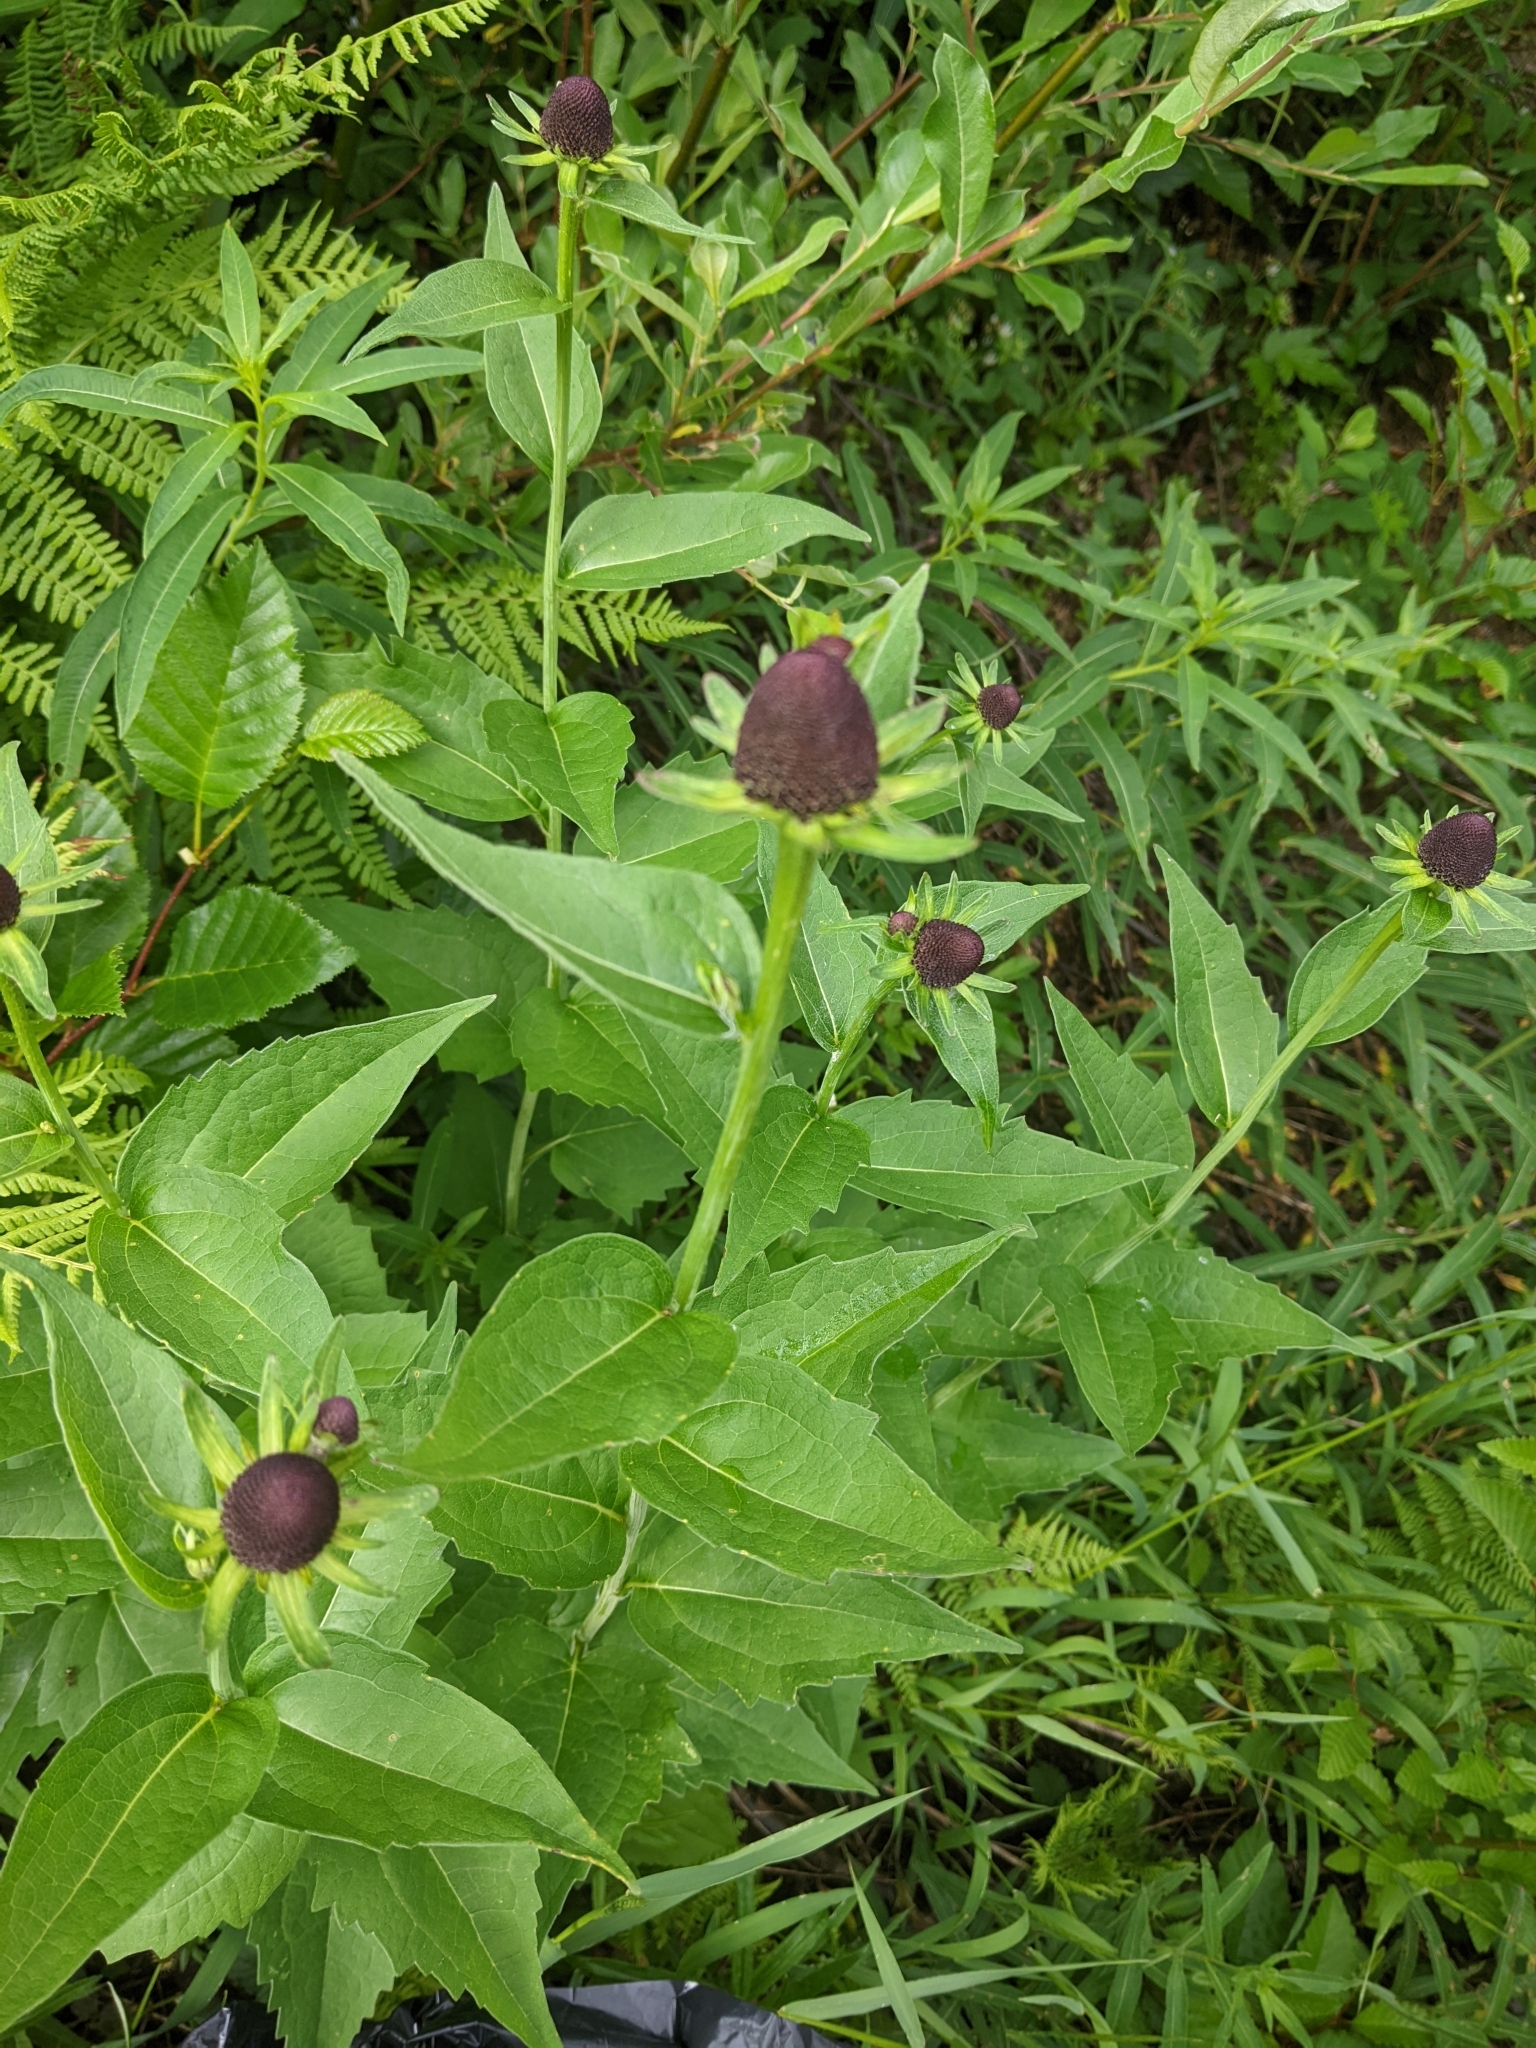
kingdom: Plantae
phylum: Tracheophyta
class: Magnoliopsida
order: Asterales
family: Asteraceae
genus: Rudbeckia
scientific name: Rudbeckia occidentalis
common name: Western coneflower
